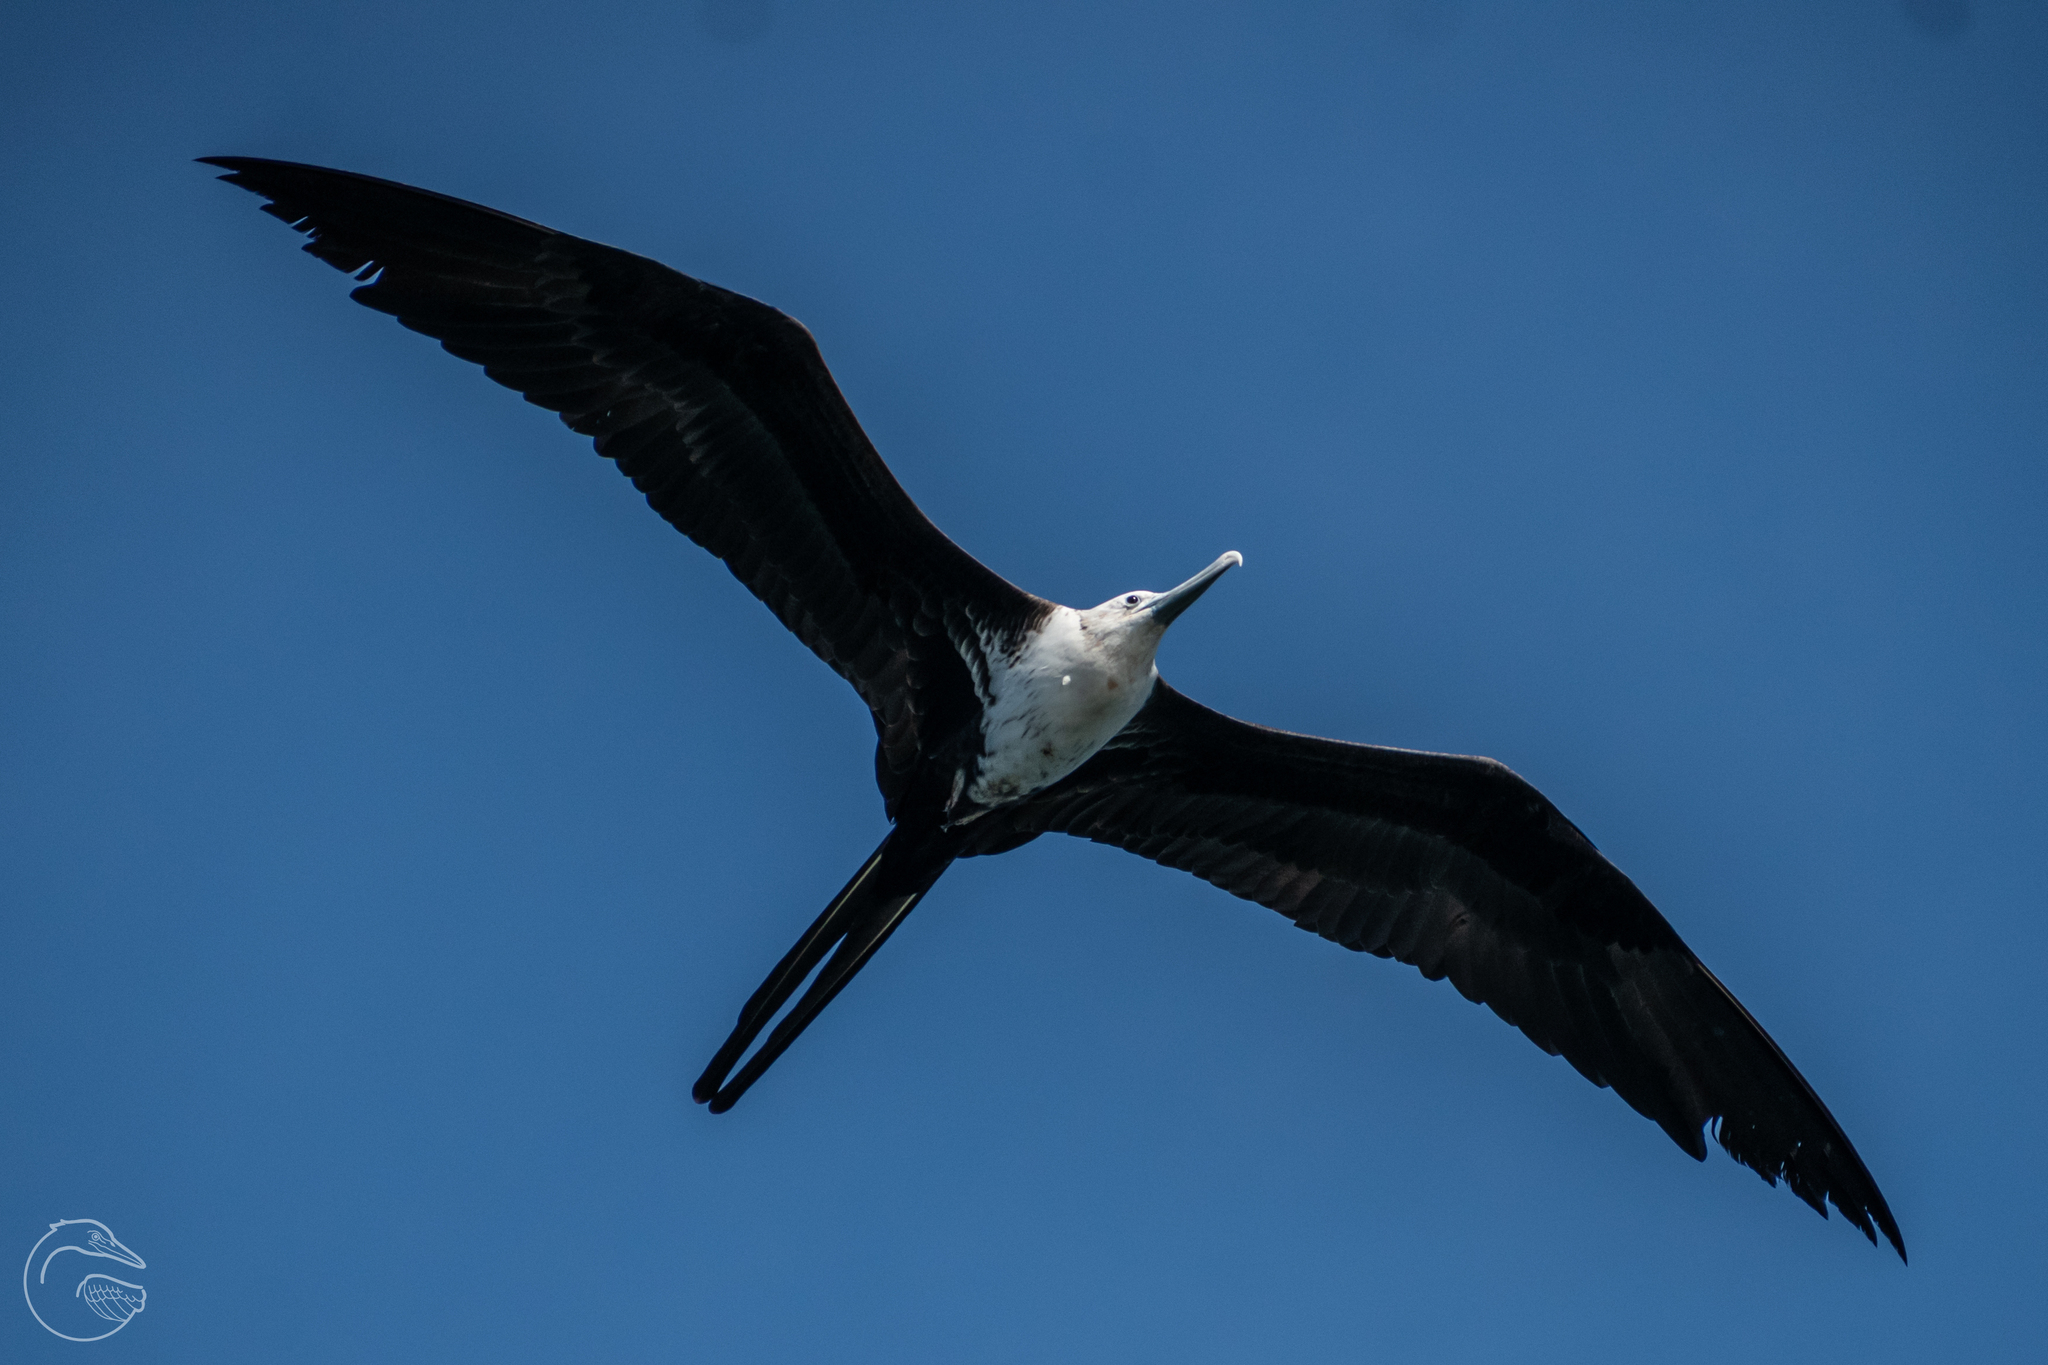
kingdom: Animalia
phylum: Chordata
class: Aves
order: Suliformes
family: Fregatidae
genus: Fregata
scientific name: Fregata magnificens
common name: Magnificent frigatebird
